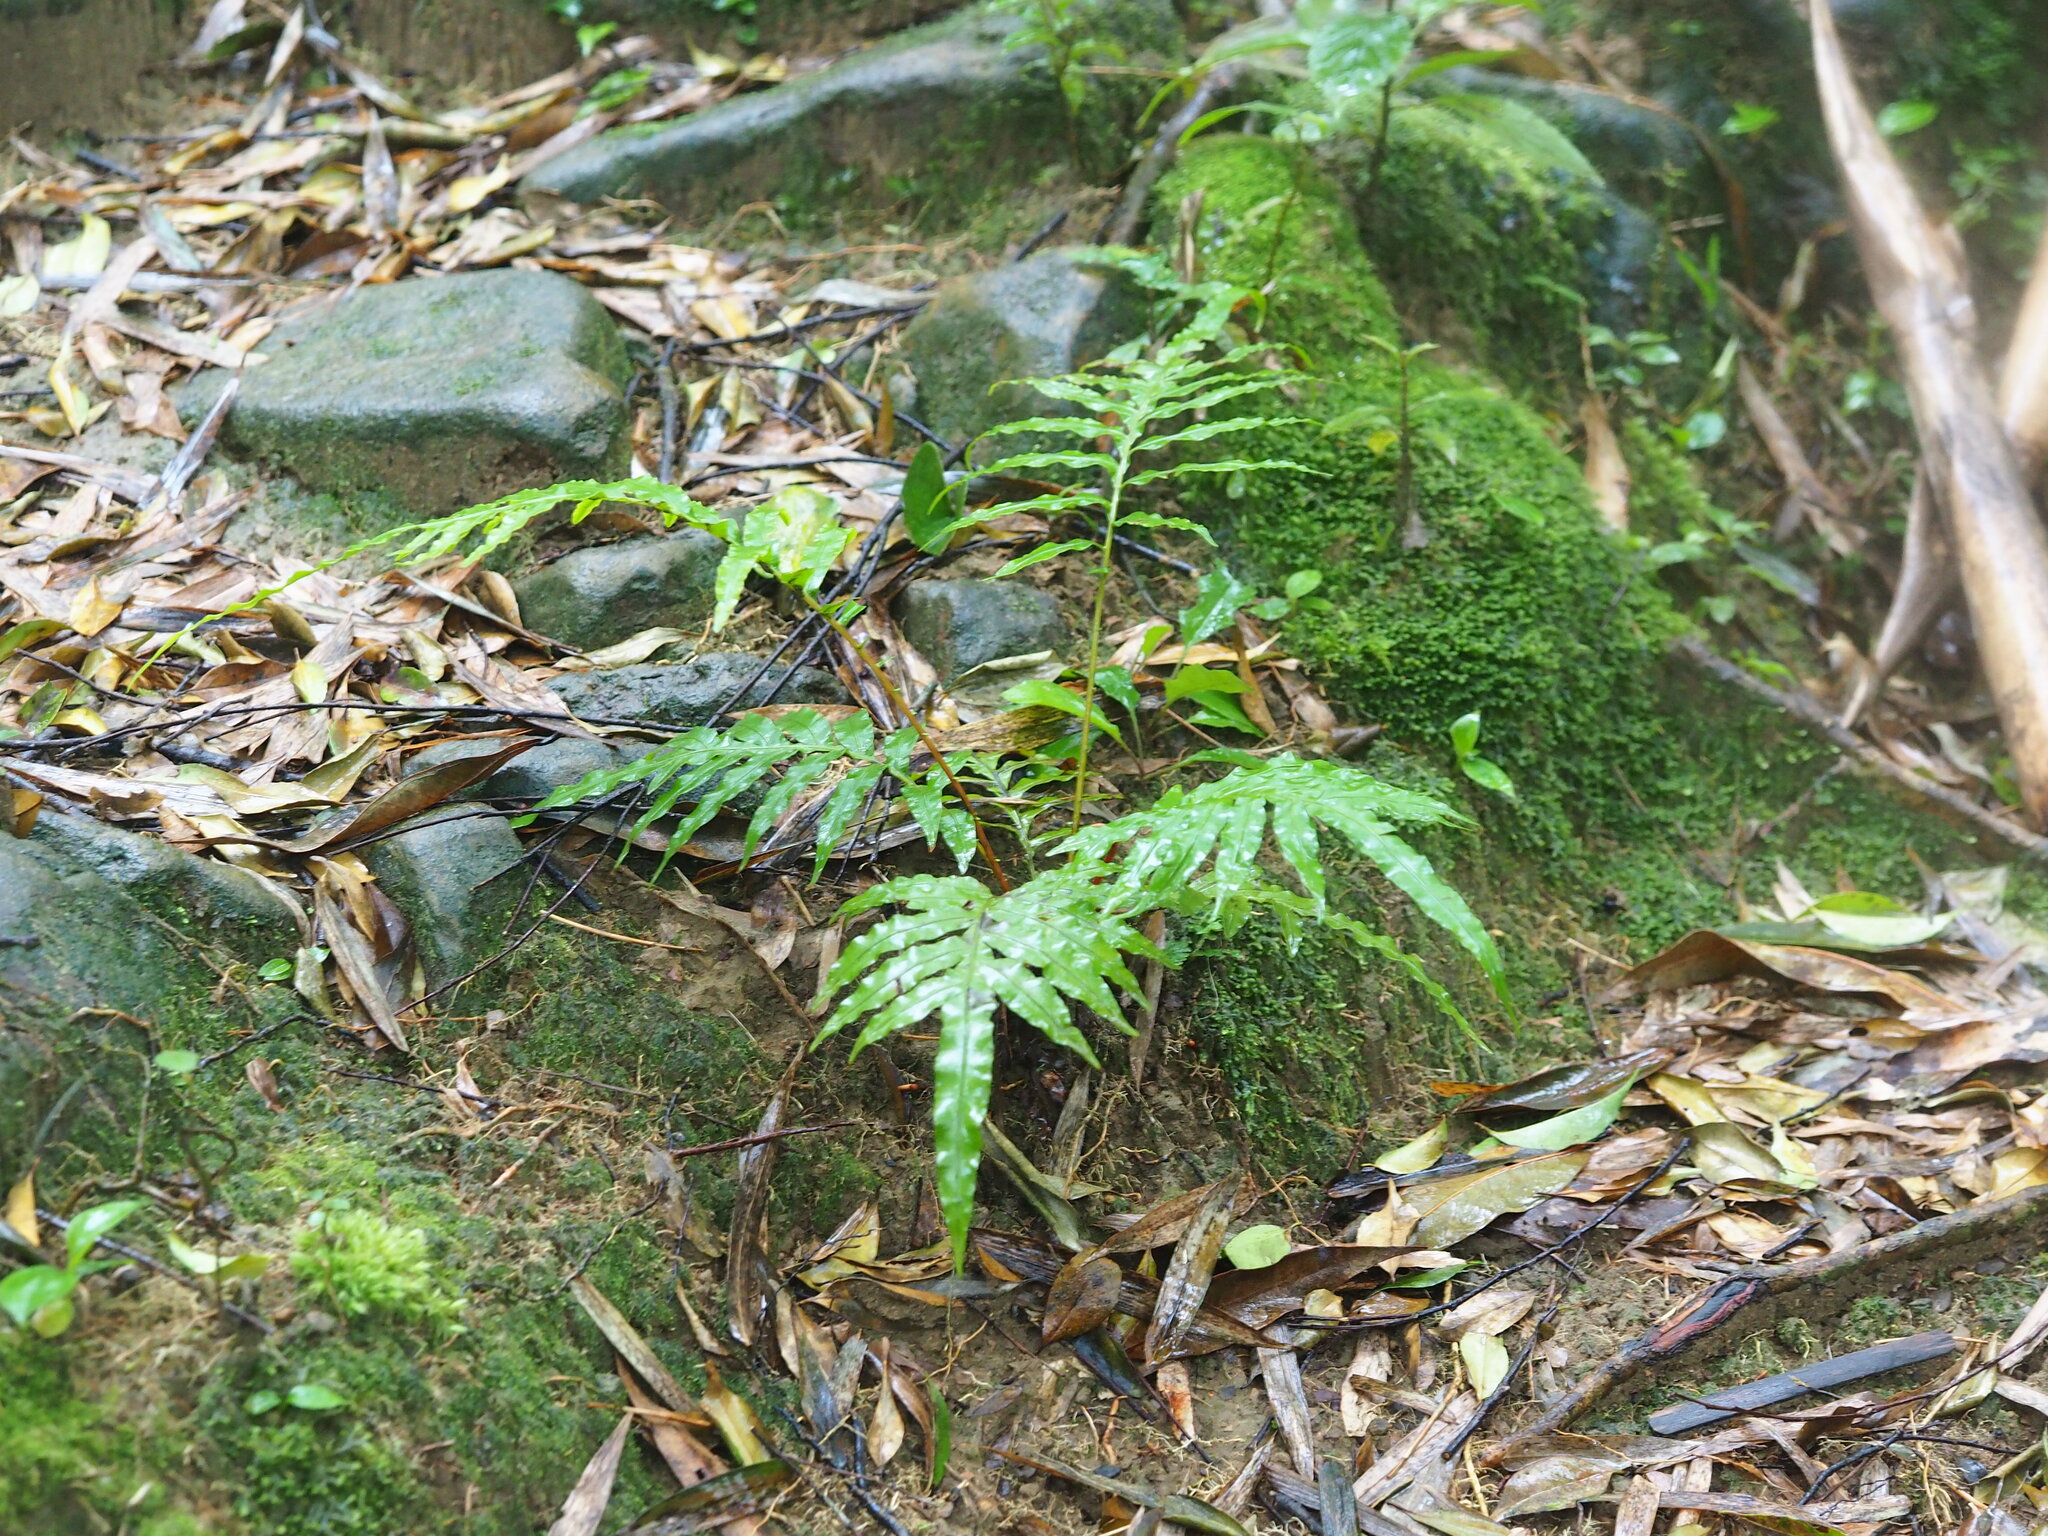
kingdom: Plantae
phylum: Tracheophyta
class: Polypodiopsida
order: Polypodiales
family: Blechnaceae
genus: Blechnopsis
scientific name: Blechnopsis orientalis
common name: Oriental blechnum
